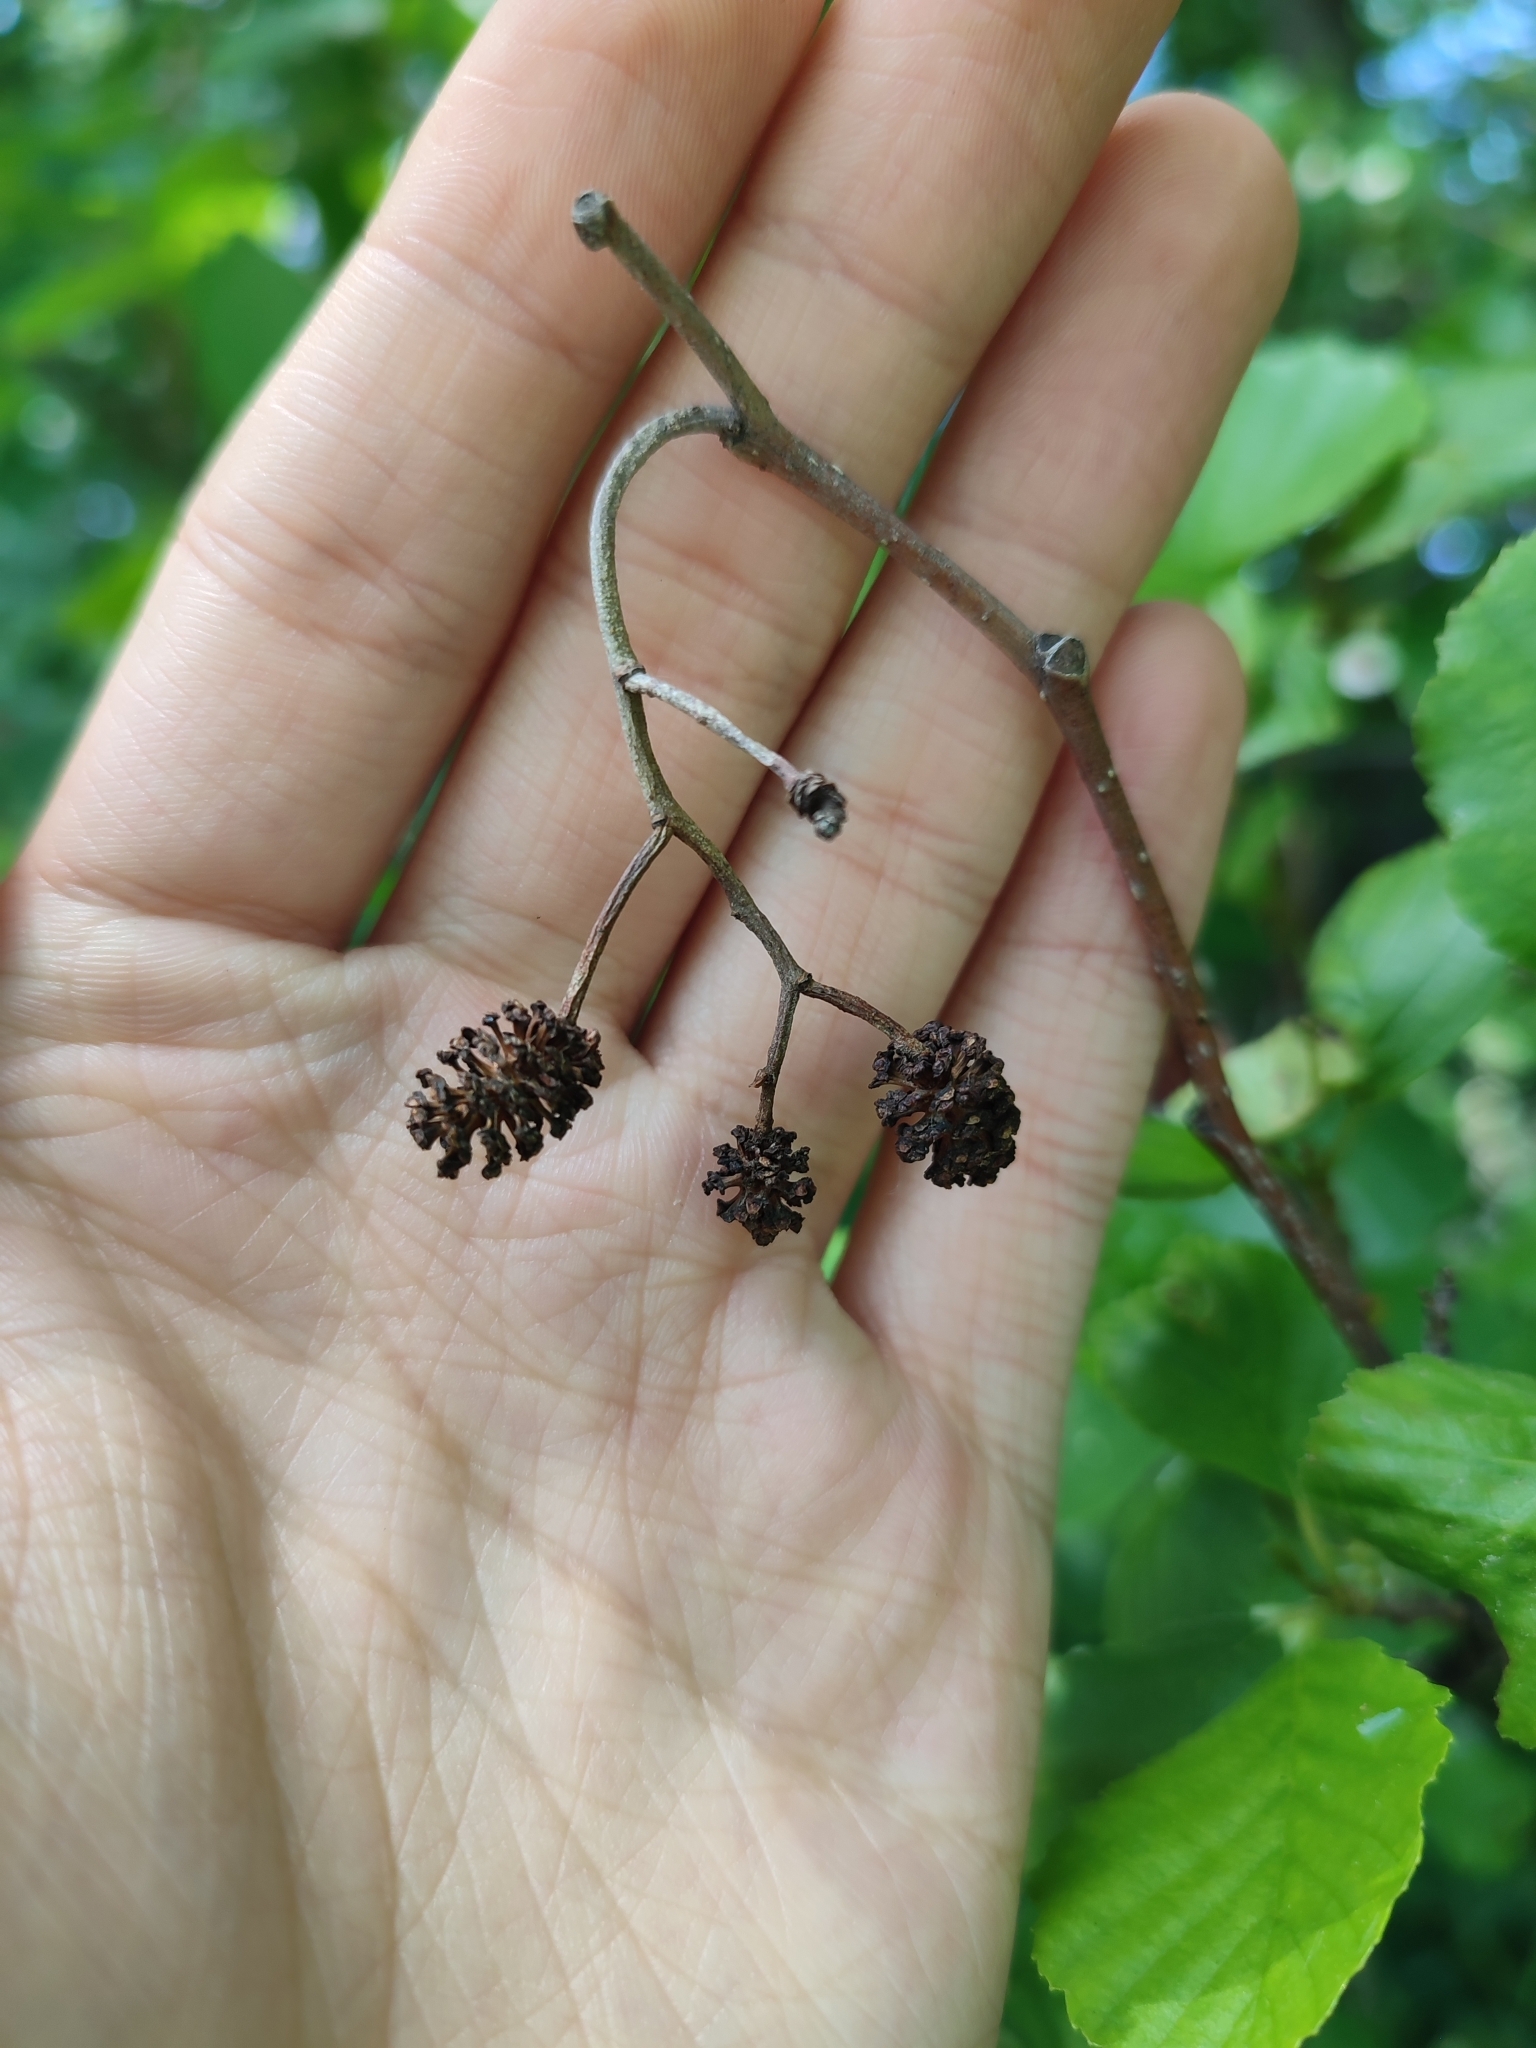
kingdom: Plantae
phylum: Tracheophyta
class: Magnoliopsida
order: Fagales
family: Betulaceae
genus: Alnus
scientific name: Alnus glutinosa
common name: Black alder
